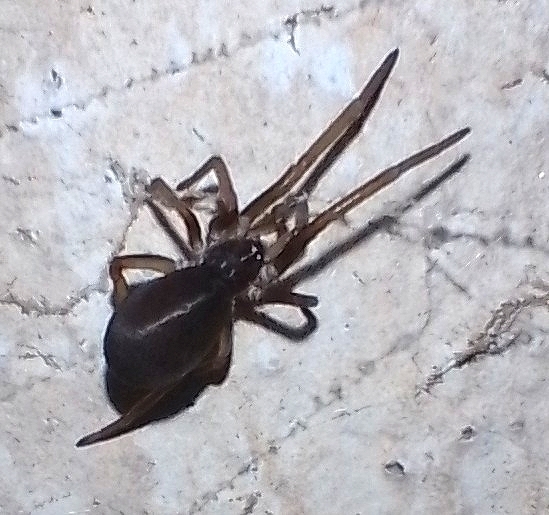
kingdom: Animalia
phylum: Arthropoda
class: Arachnida
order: Araneae
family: Filistatidae
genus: Kukulcania
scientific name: Kukulcania hibernalis
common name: Crevice weaver
